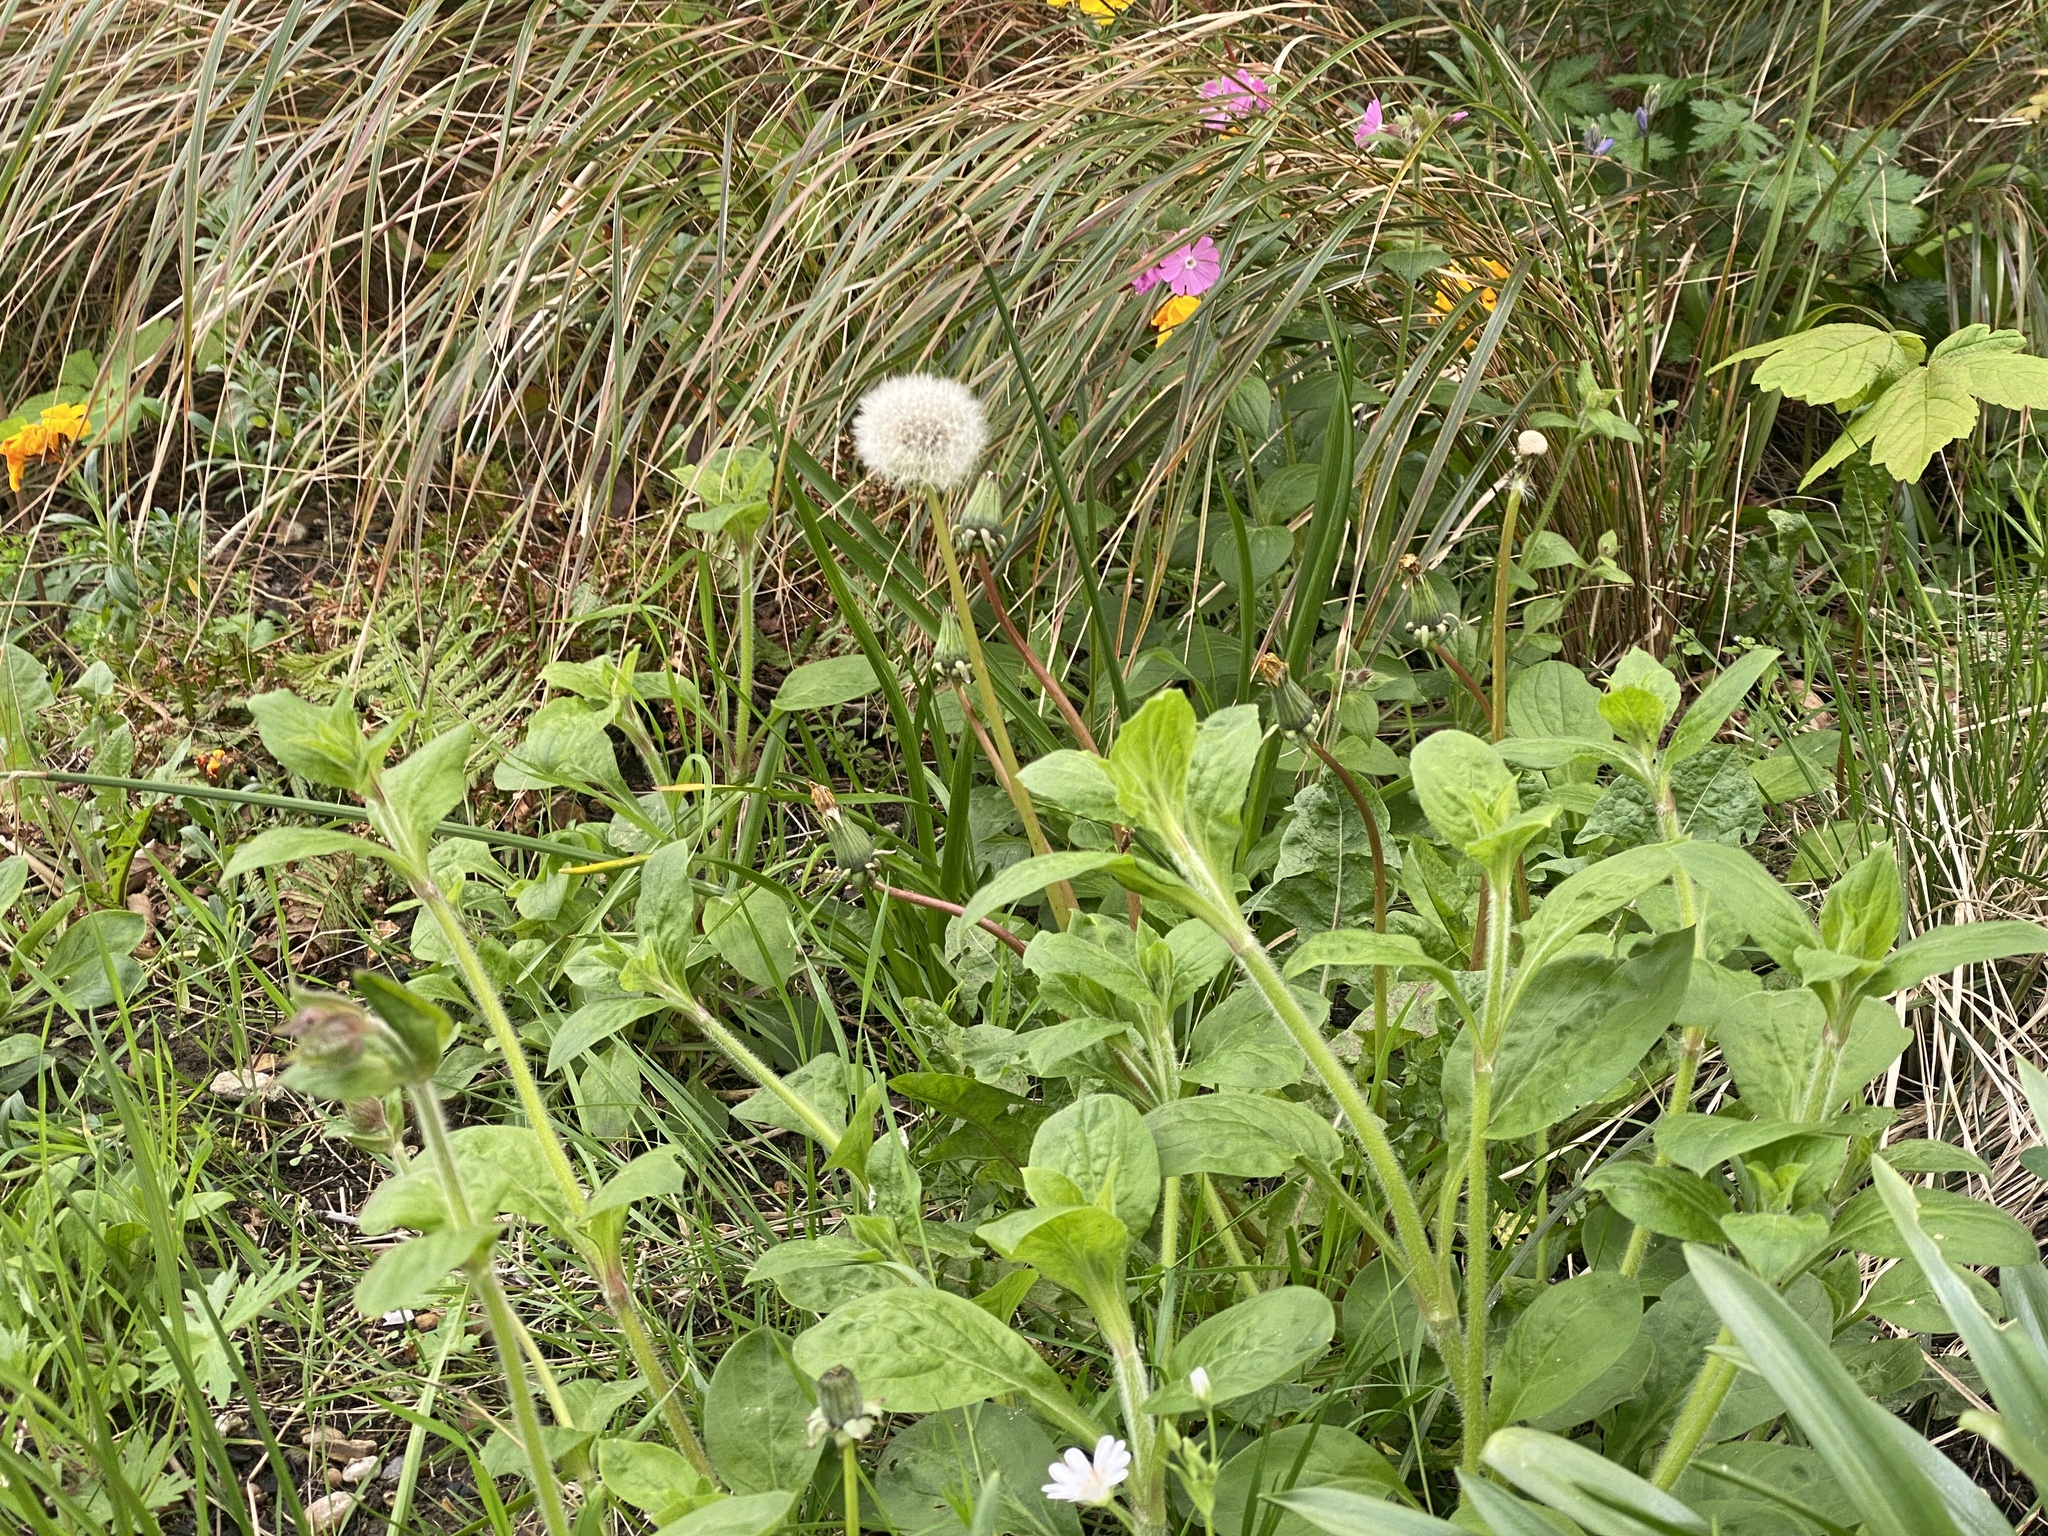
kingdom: Plantae
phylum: Tracheophyta
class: Magnoliopsida
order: Caryophyllales
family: Caryophyllaceae
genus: Silene
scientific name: Silene dioica
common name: Red campion
